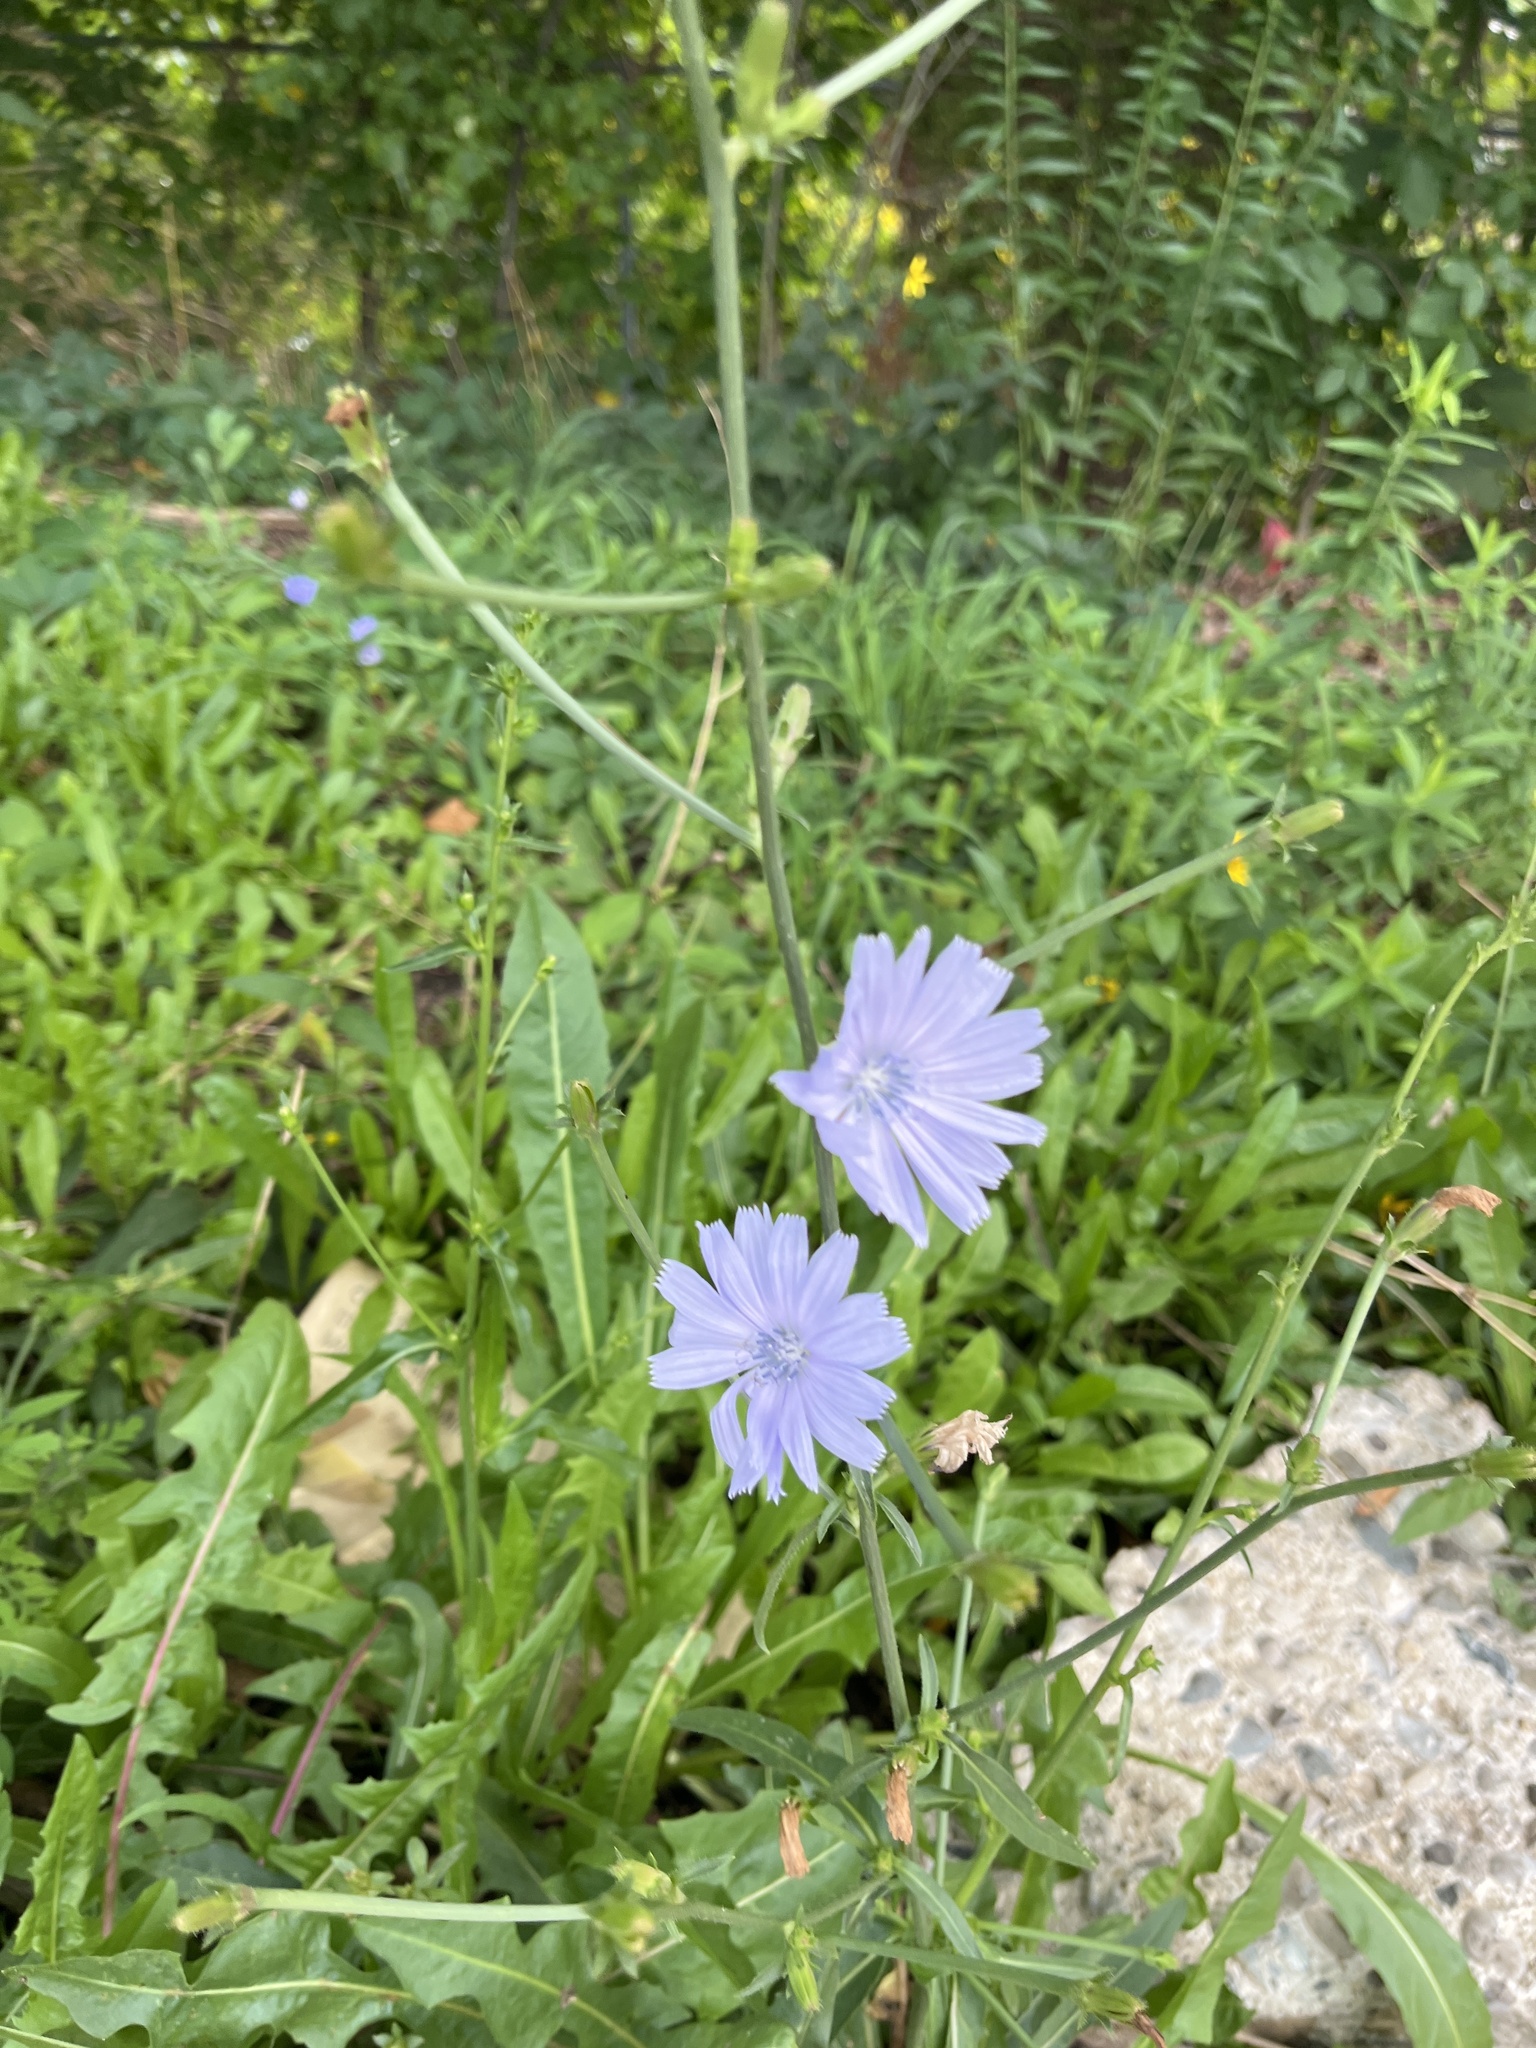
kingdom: Plantae
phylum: Tracheophyta
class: Magnoliopsida
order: Asterales
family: Asteraceae
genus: Cichorium
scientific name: Cichorium intybus
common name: Chicory
